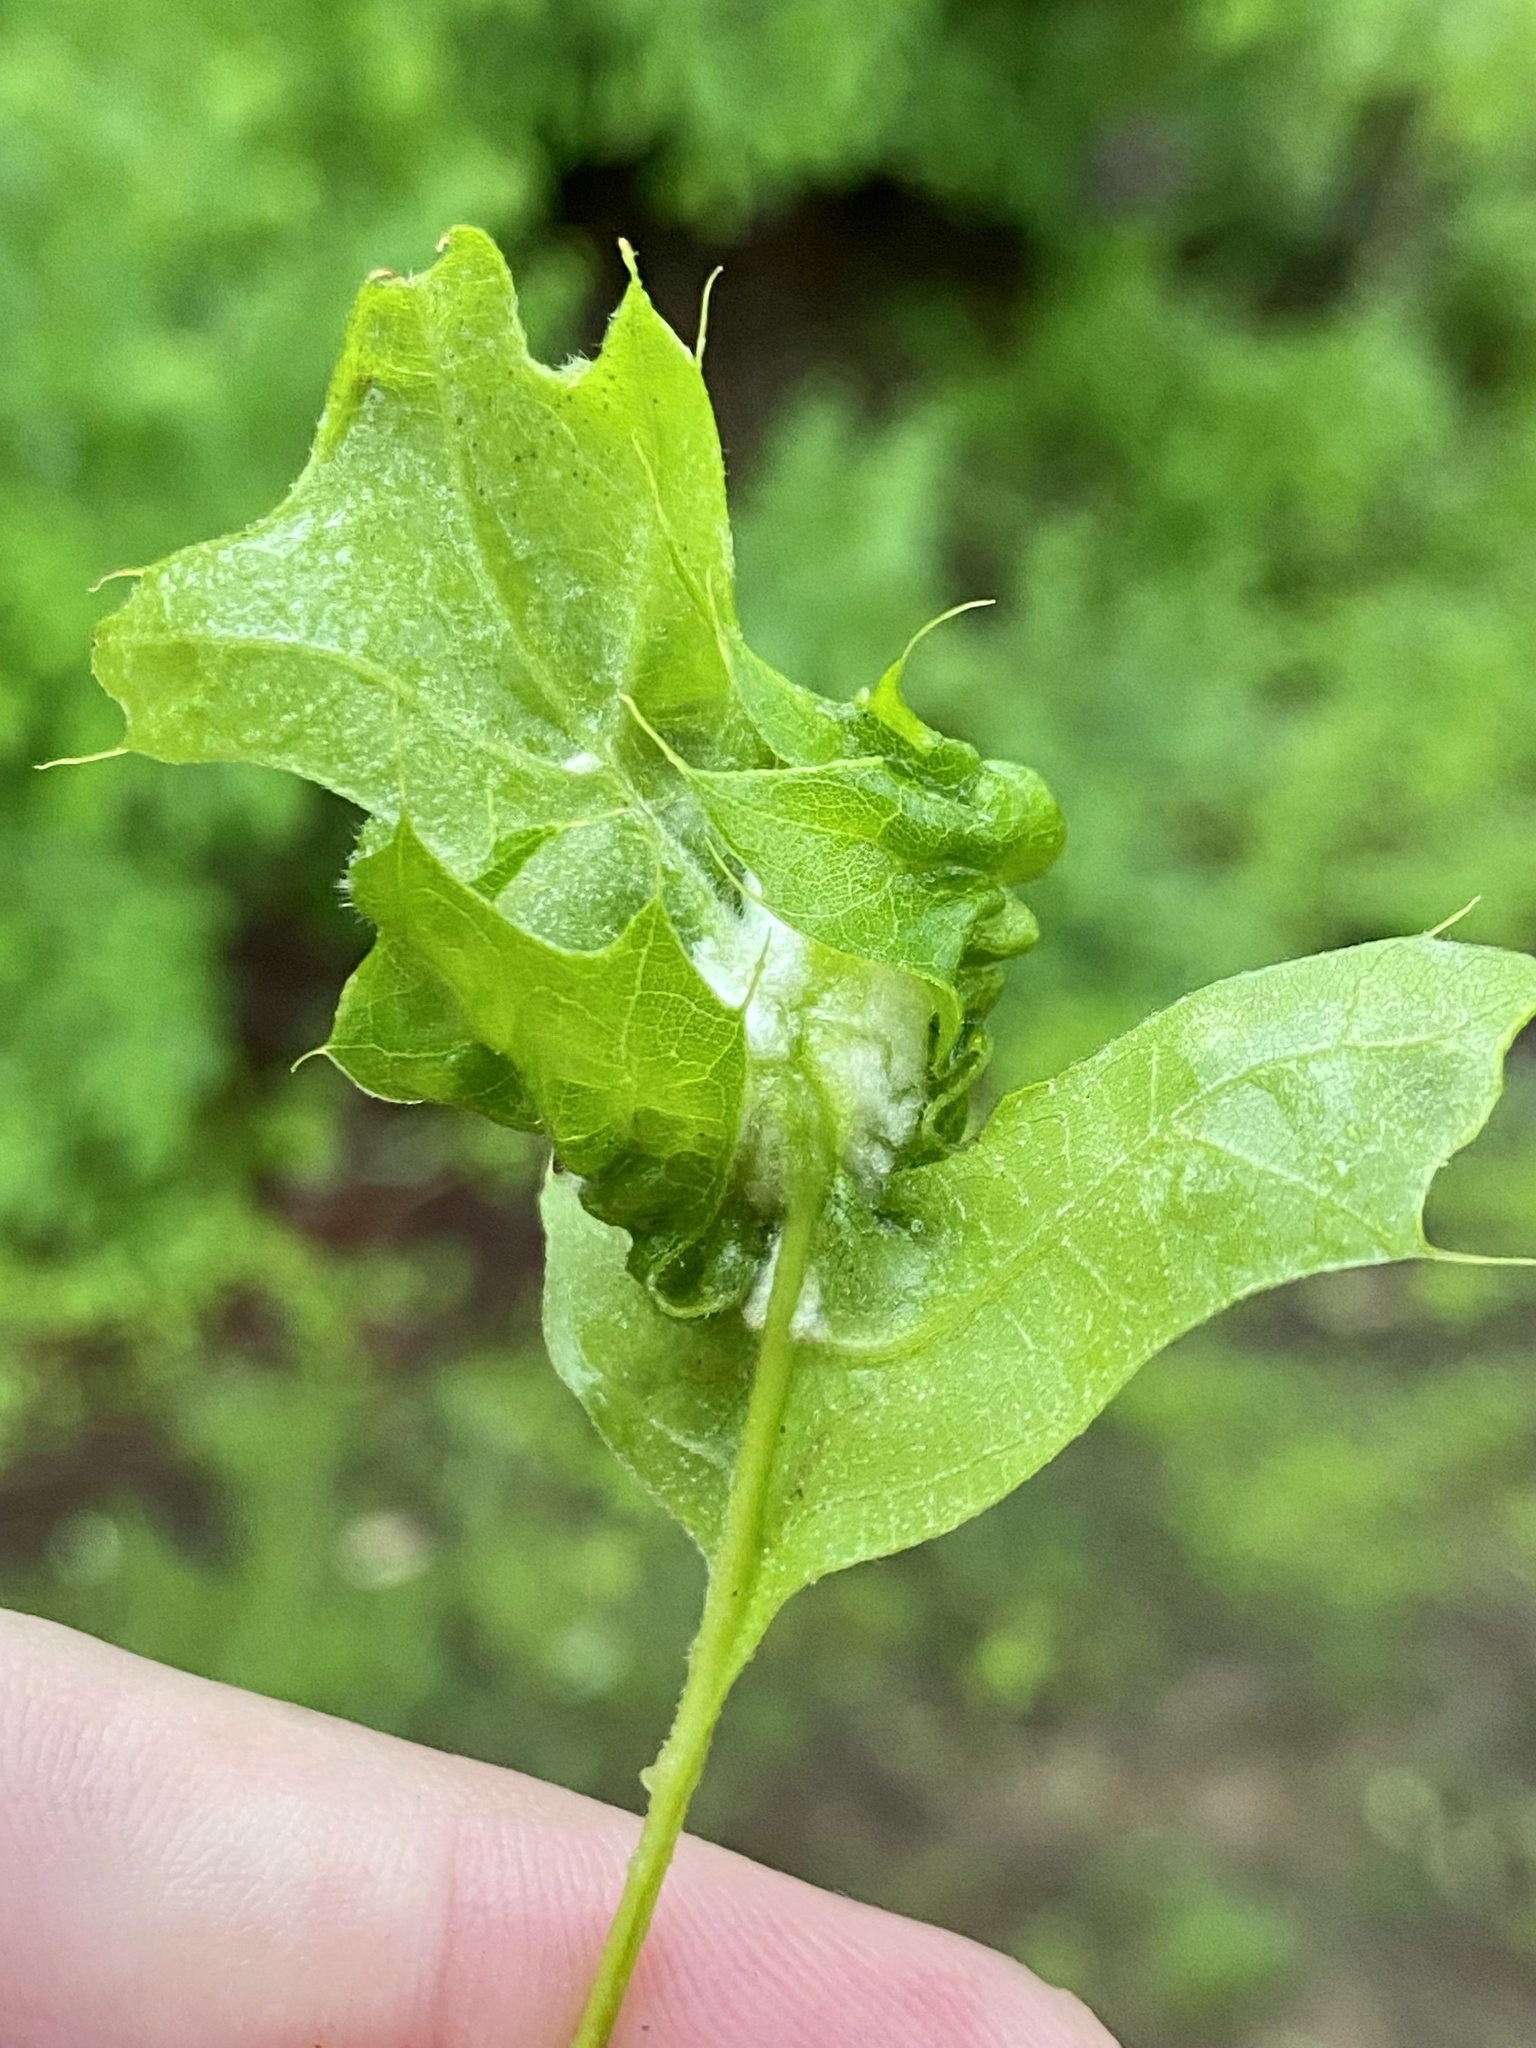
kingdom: Animalia
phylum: Arthropoda
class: Insecta
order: Diptera
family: Cecidomyiidae
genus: Macrodiplosis
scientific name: Macrodiplosis niveipila
